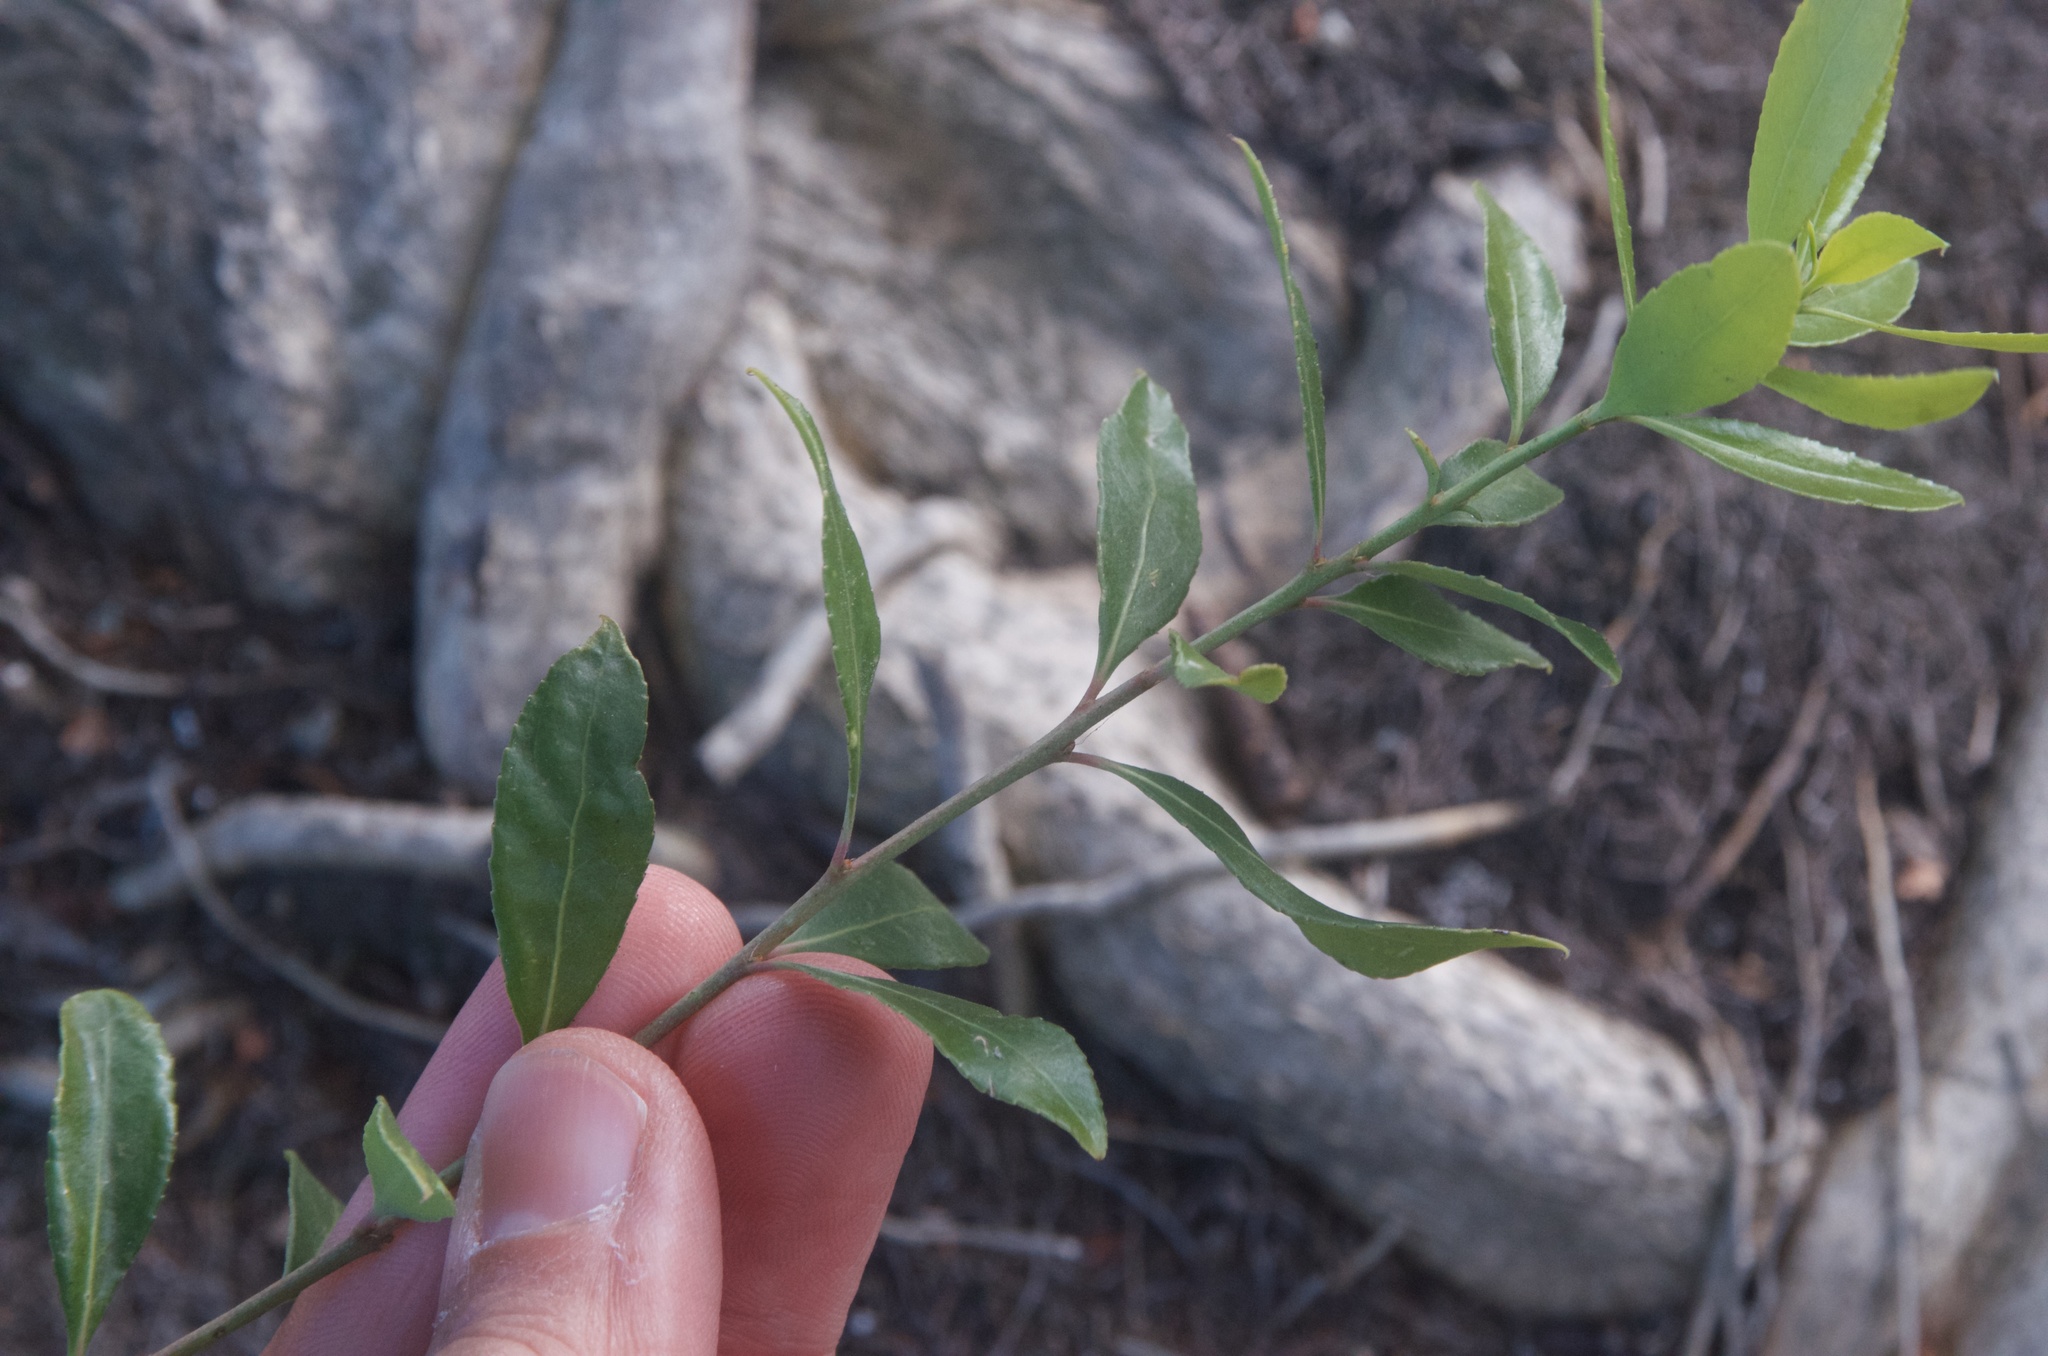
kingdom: Plantae
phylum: Tracheophyta
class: Magnoliopsida
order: Celastrales
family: Celastraceae
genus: Maytenus
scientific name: Maytenus boaria
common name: Mayten
